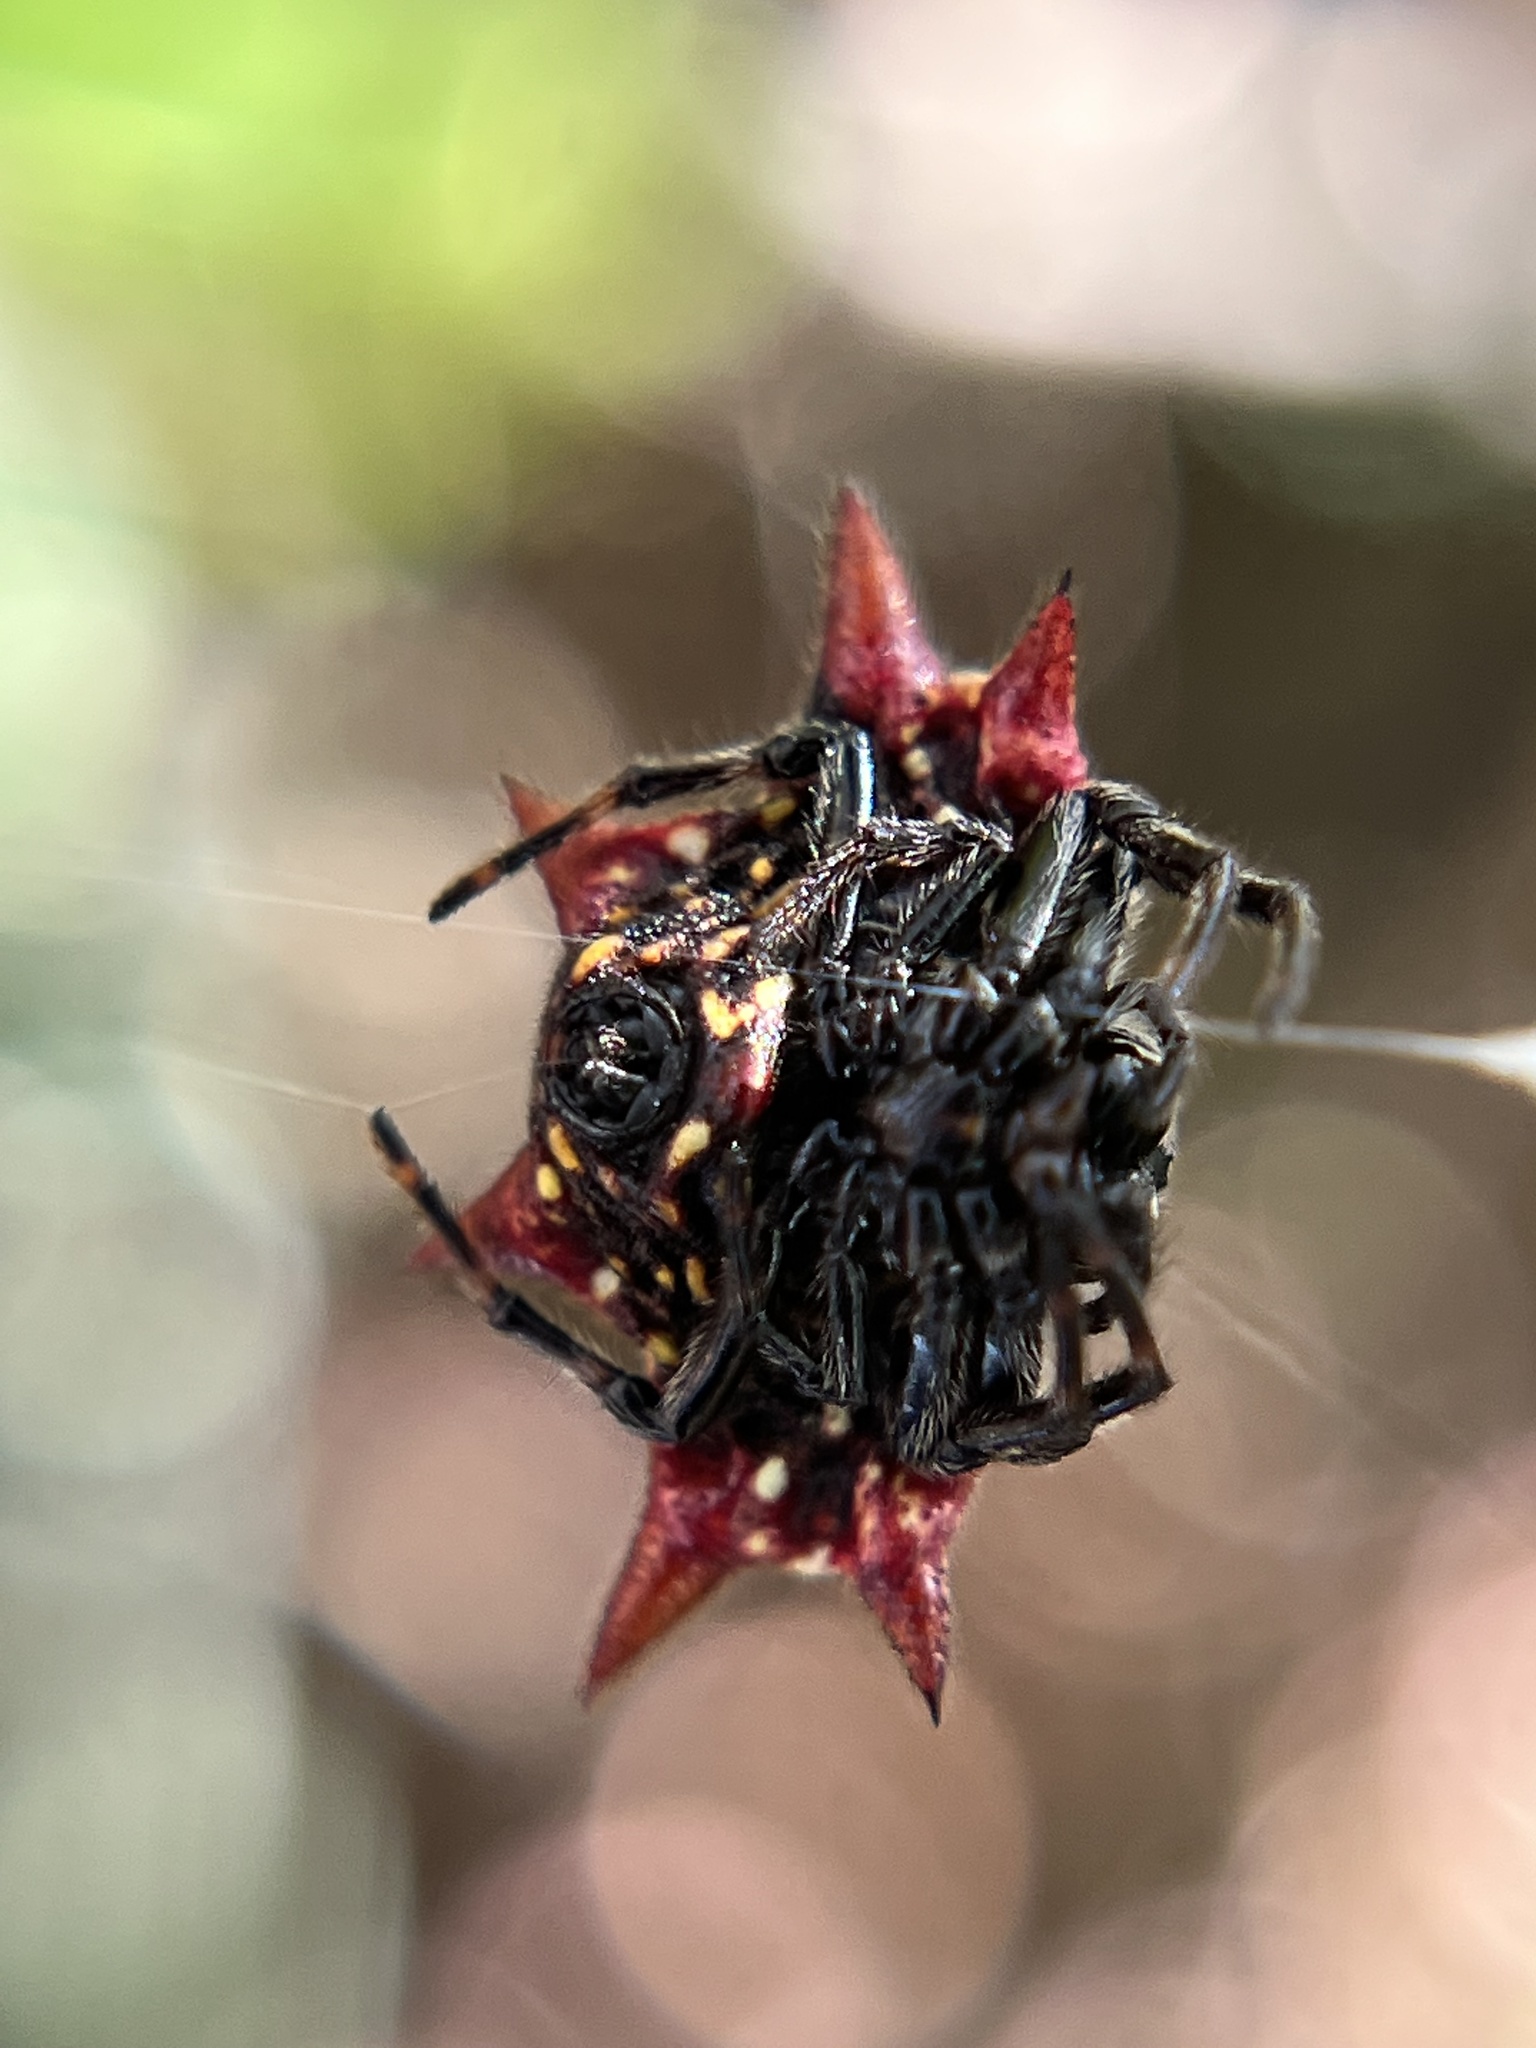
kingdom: Animalia
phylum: Arthropoda
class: Arachnida
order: Araneae
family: Araneidae
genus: Gasteracantha
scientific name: Gasteracantha cancriformis
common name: Orb weavers
